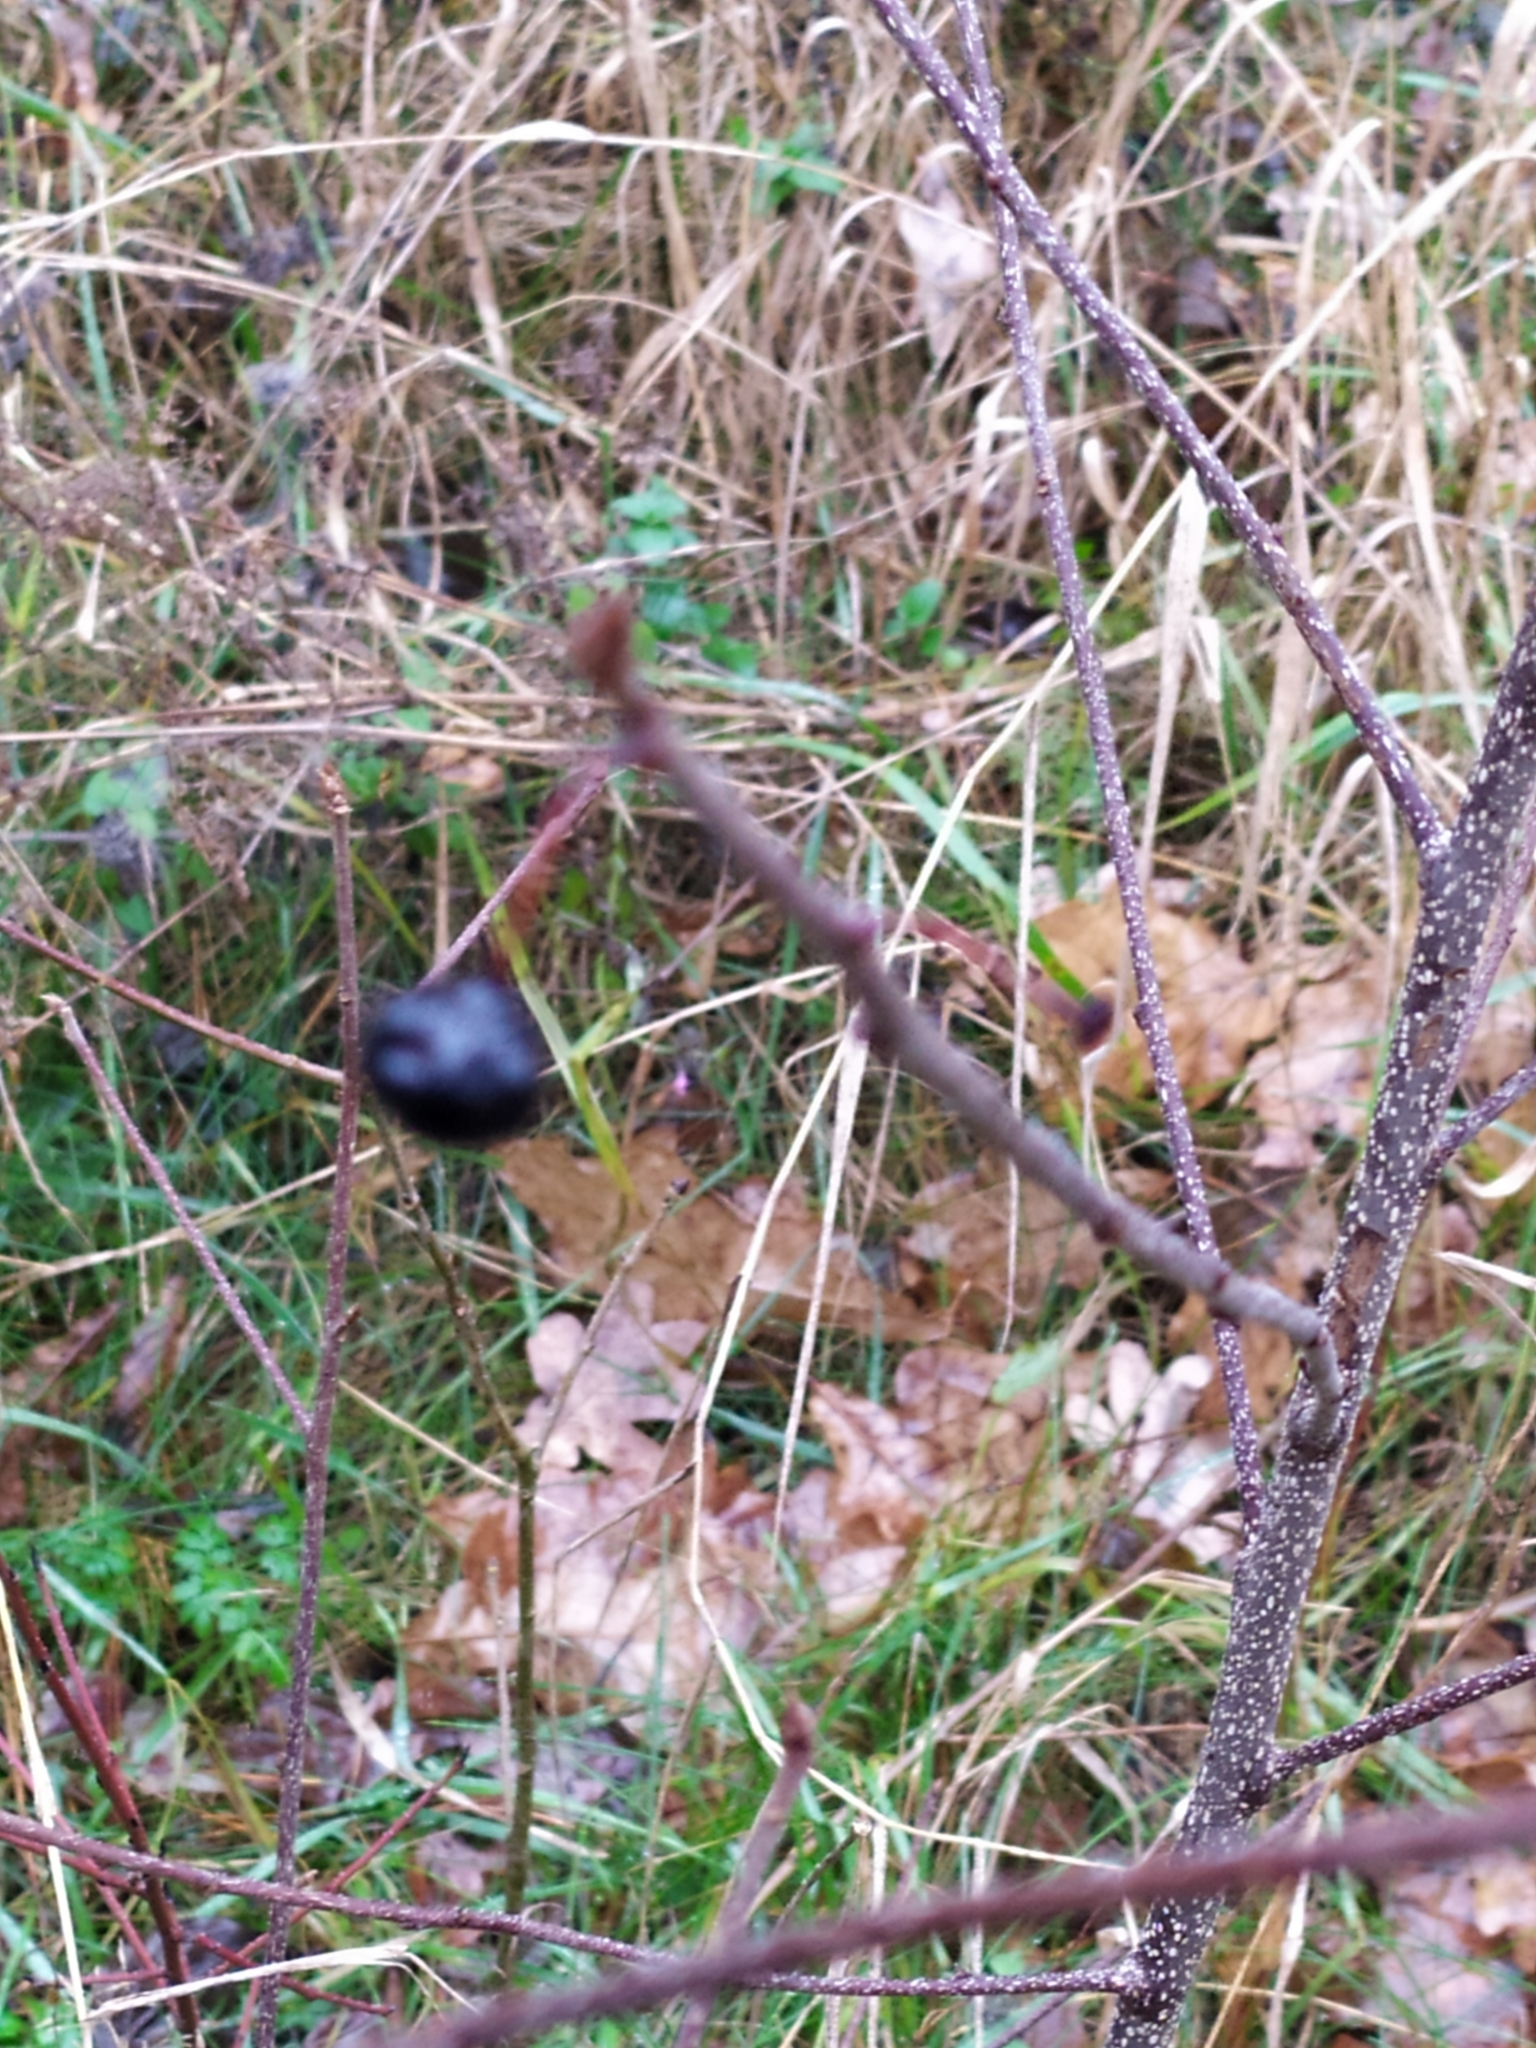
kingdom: Plantae
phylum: Tracheophyta
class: Magnoliopsida
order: Rosales
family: Rhamnaceae
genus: Frangula
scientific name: Frangula alnus
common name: Alder buckthorn
